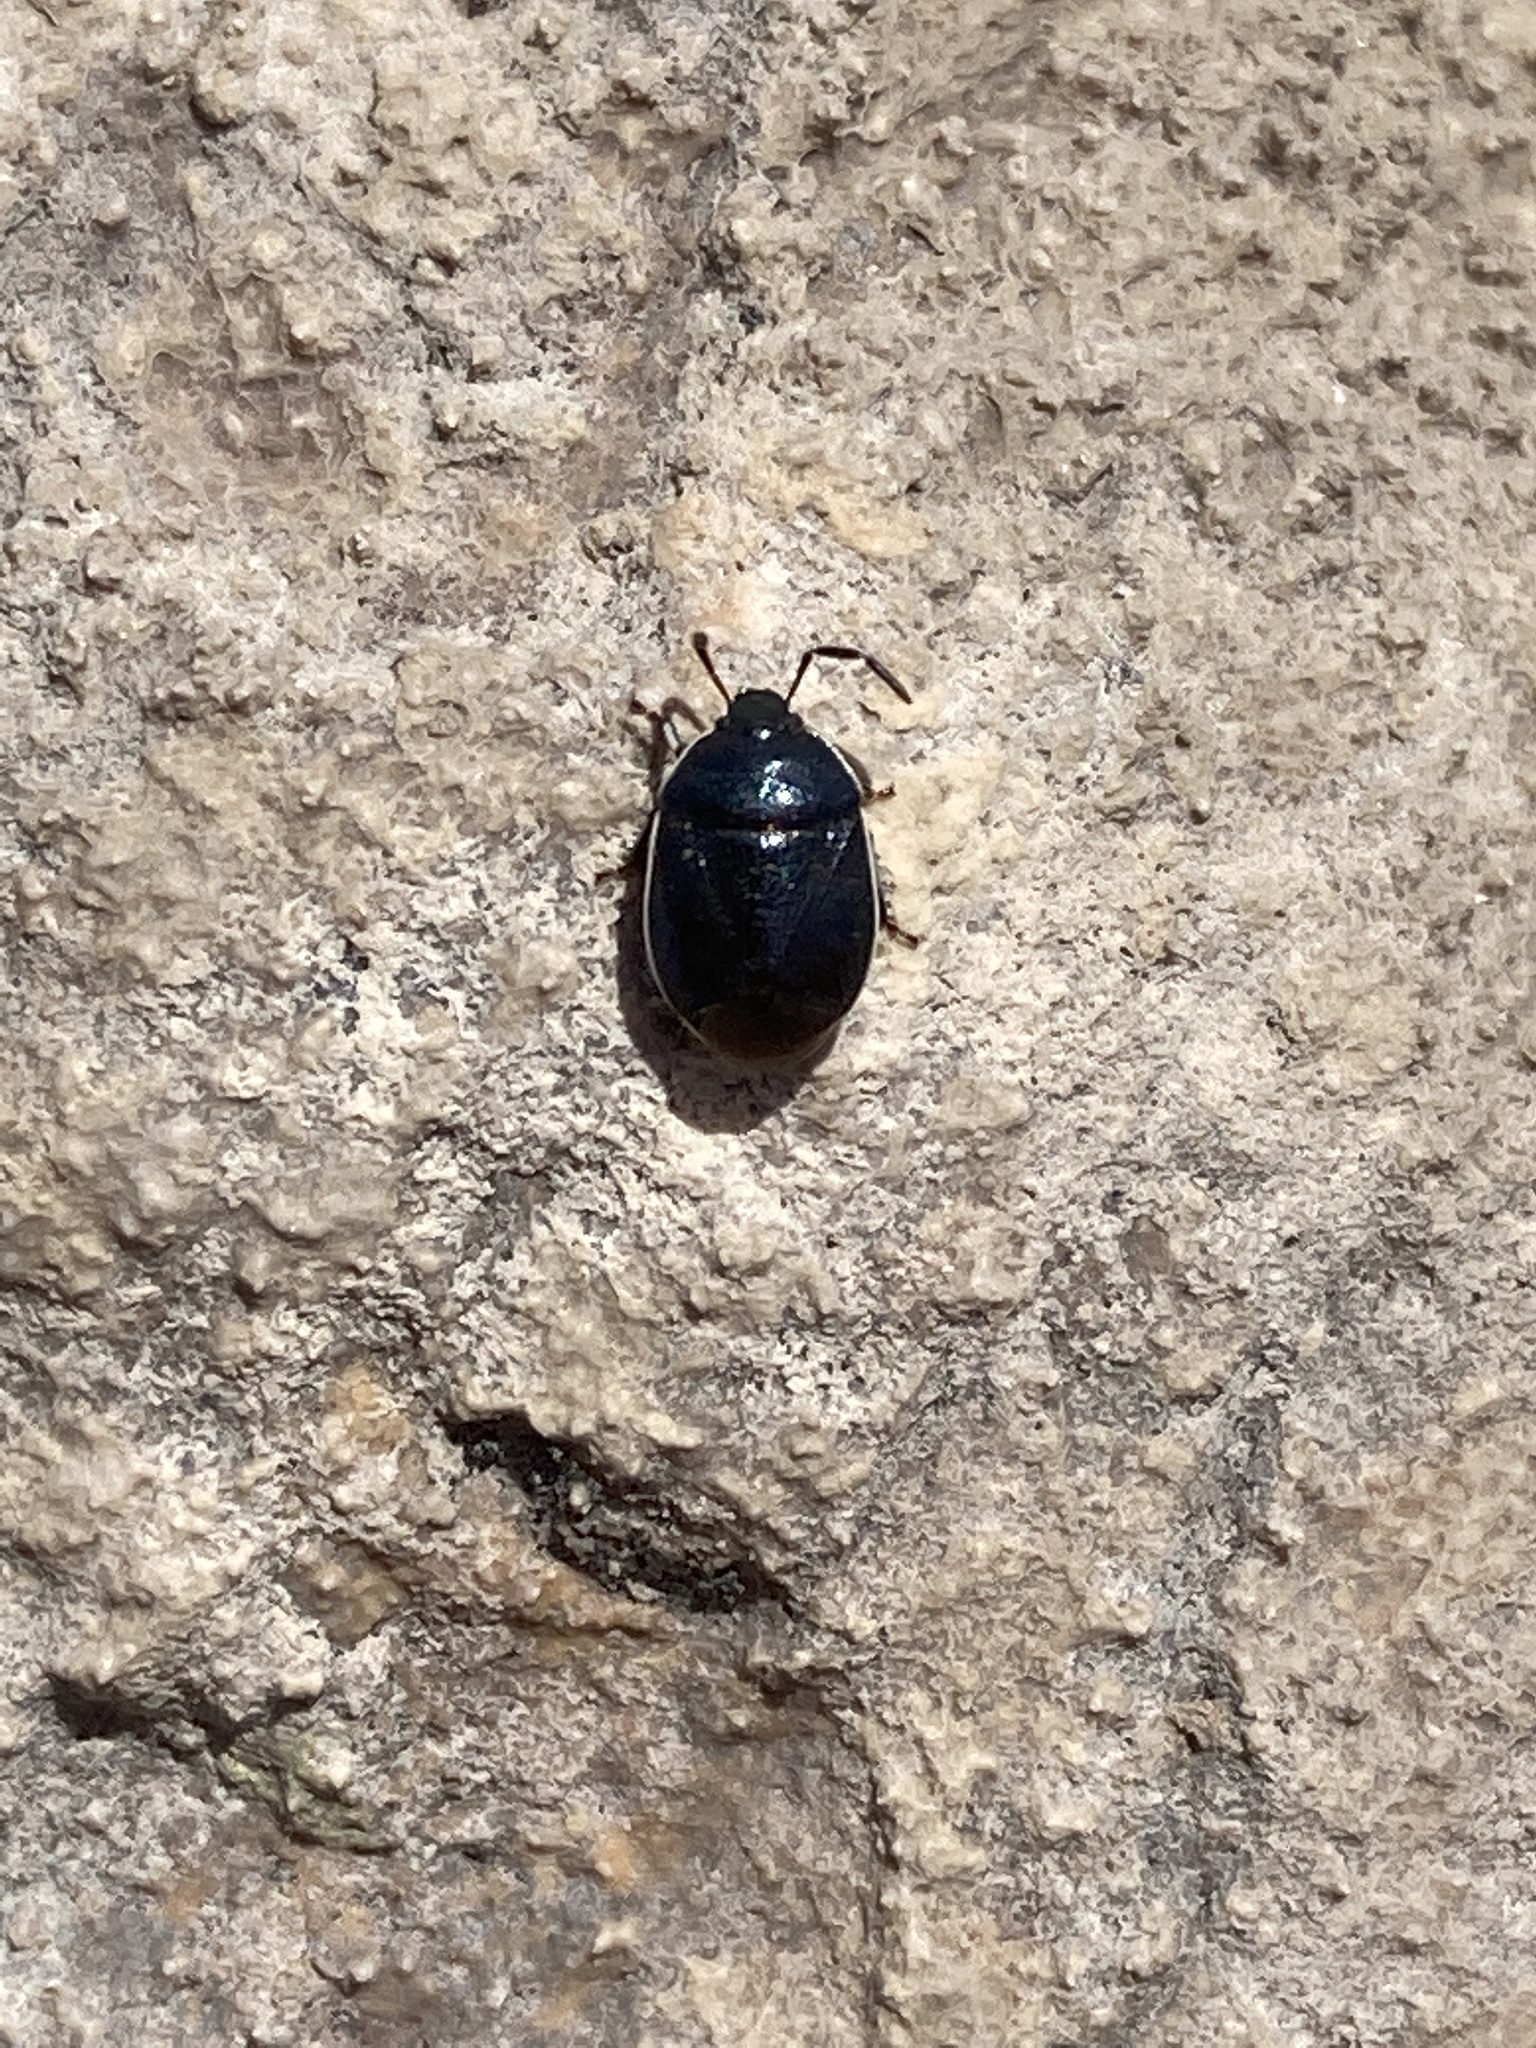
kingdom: Animalia
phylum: Arthropoda
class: Insecta
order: Hemiptera
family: Cydnidae
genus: Sehirus
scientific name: Sehirus cinctus
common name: White-margined burrower bug
